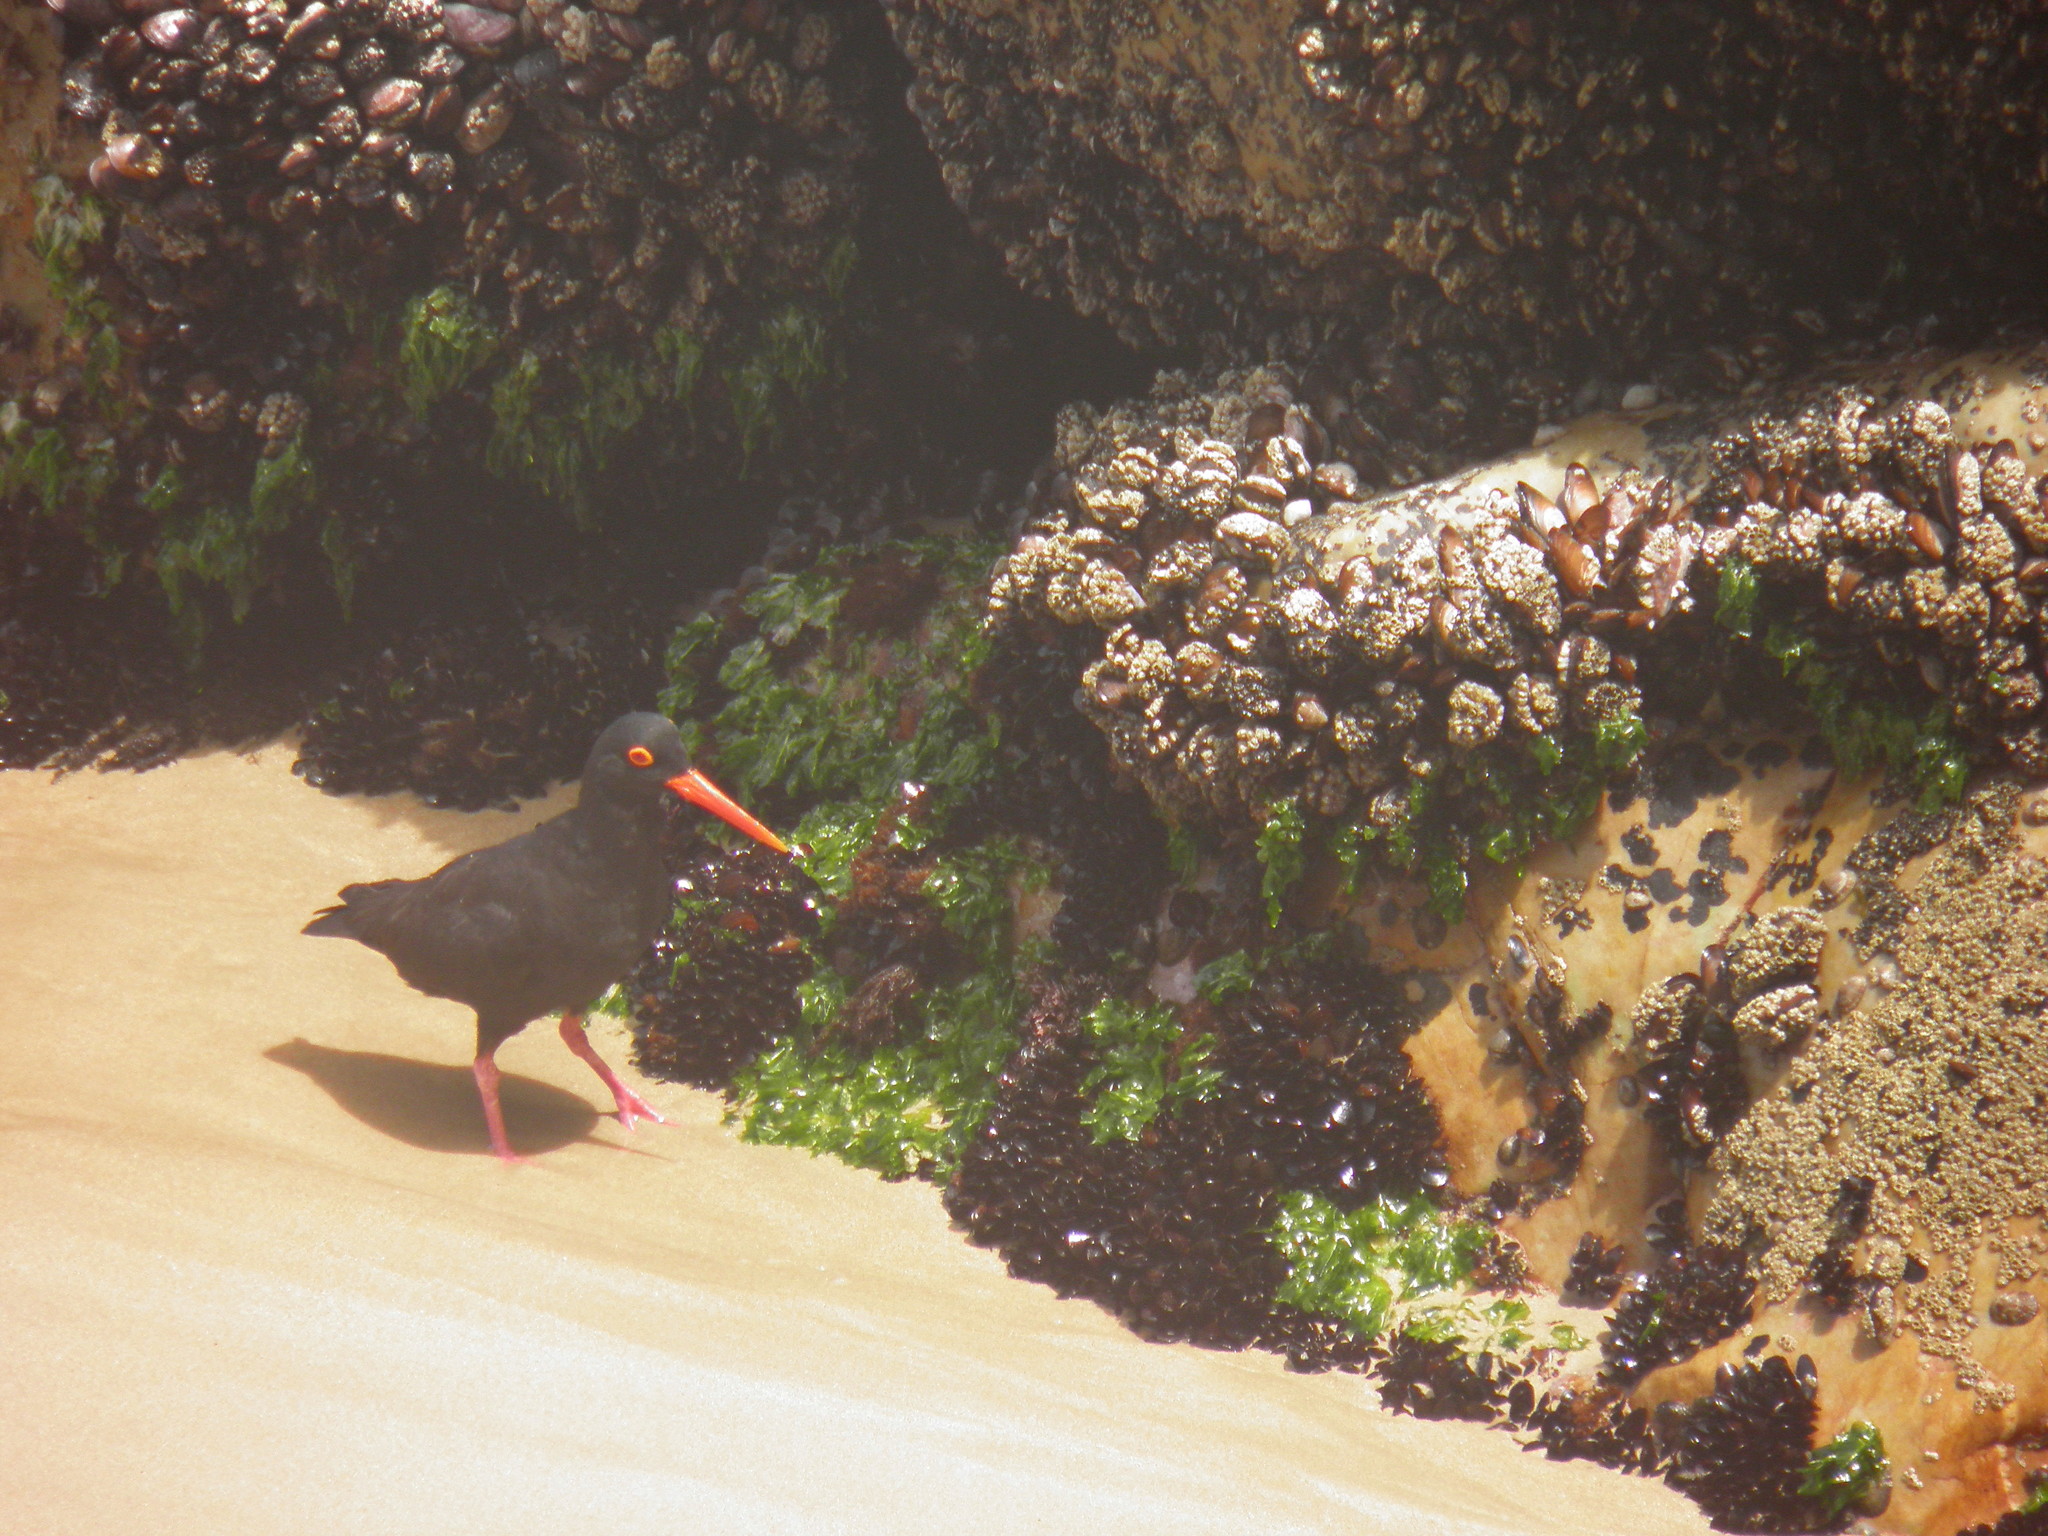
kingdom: Animalia
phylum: Chordata
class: Aves
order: Charadriiformes
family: Haematopodidae
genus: Haematopus
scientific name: Haematopus moquini
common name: African oystercatcher
